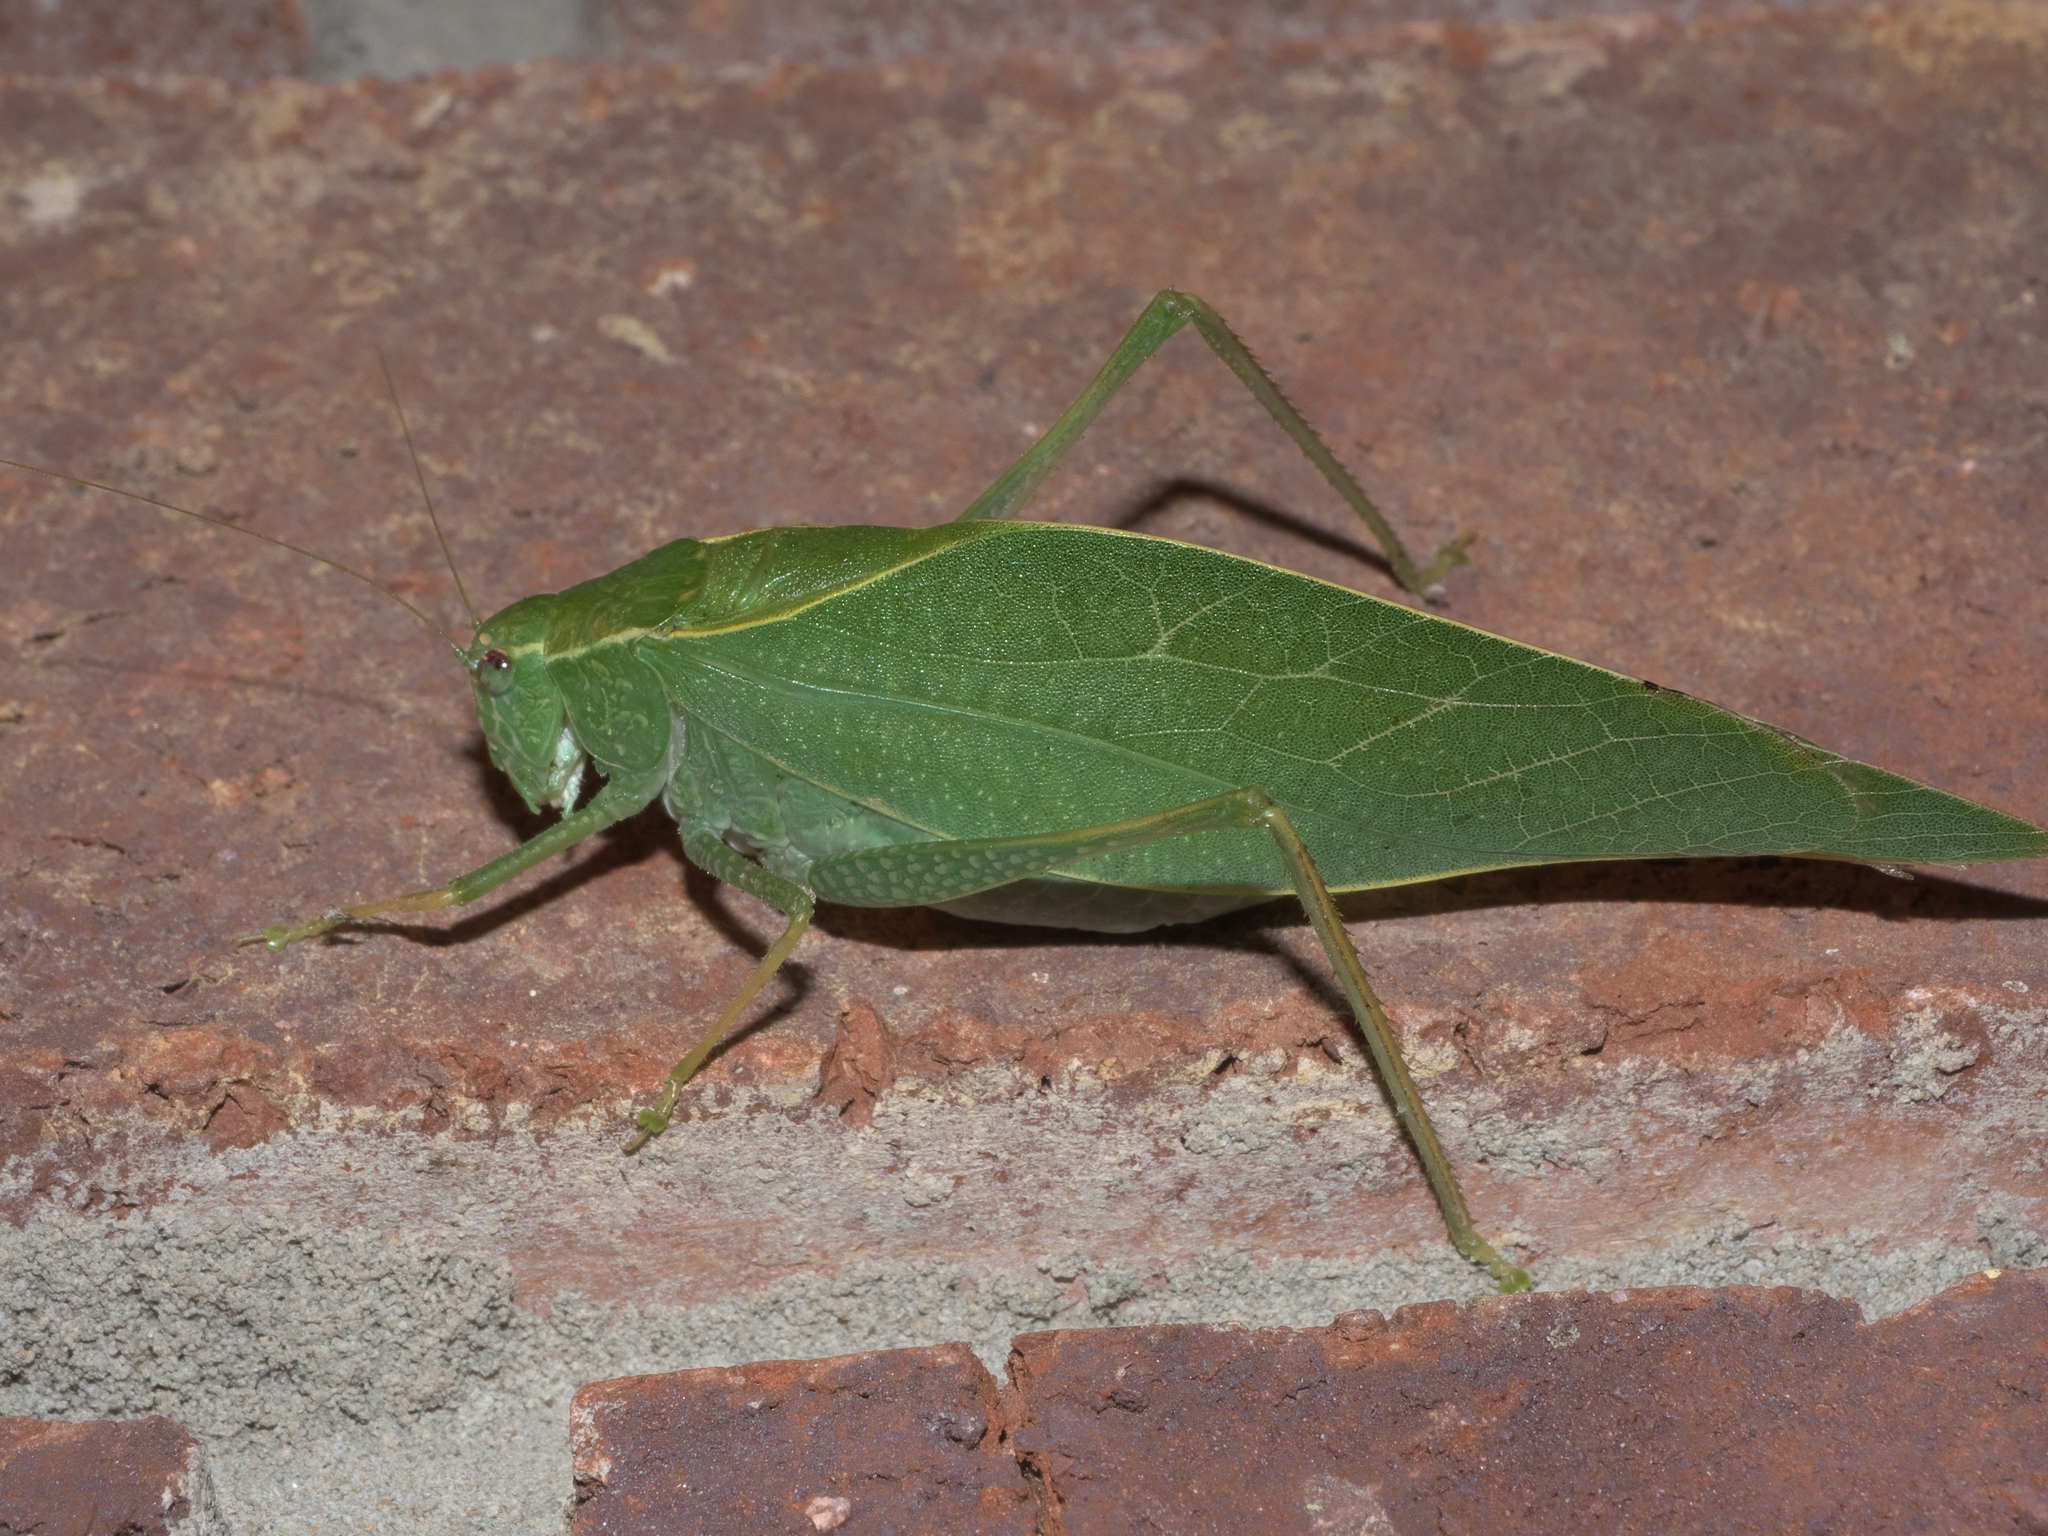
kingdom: Animalia
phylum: Arthropoda
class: Insecta
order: Orthoptera
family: Tettigoniidae
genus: Microcentrum
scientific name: Microcentrum rhombifolium
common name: Broad-winged katydid
